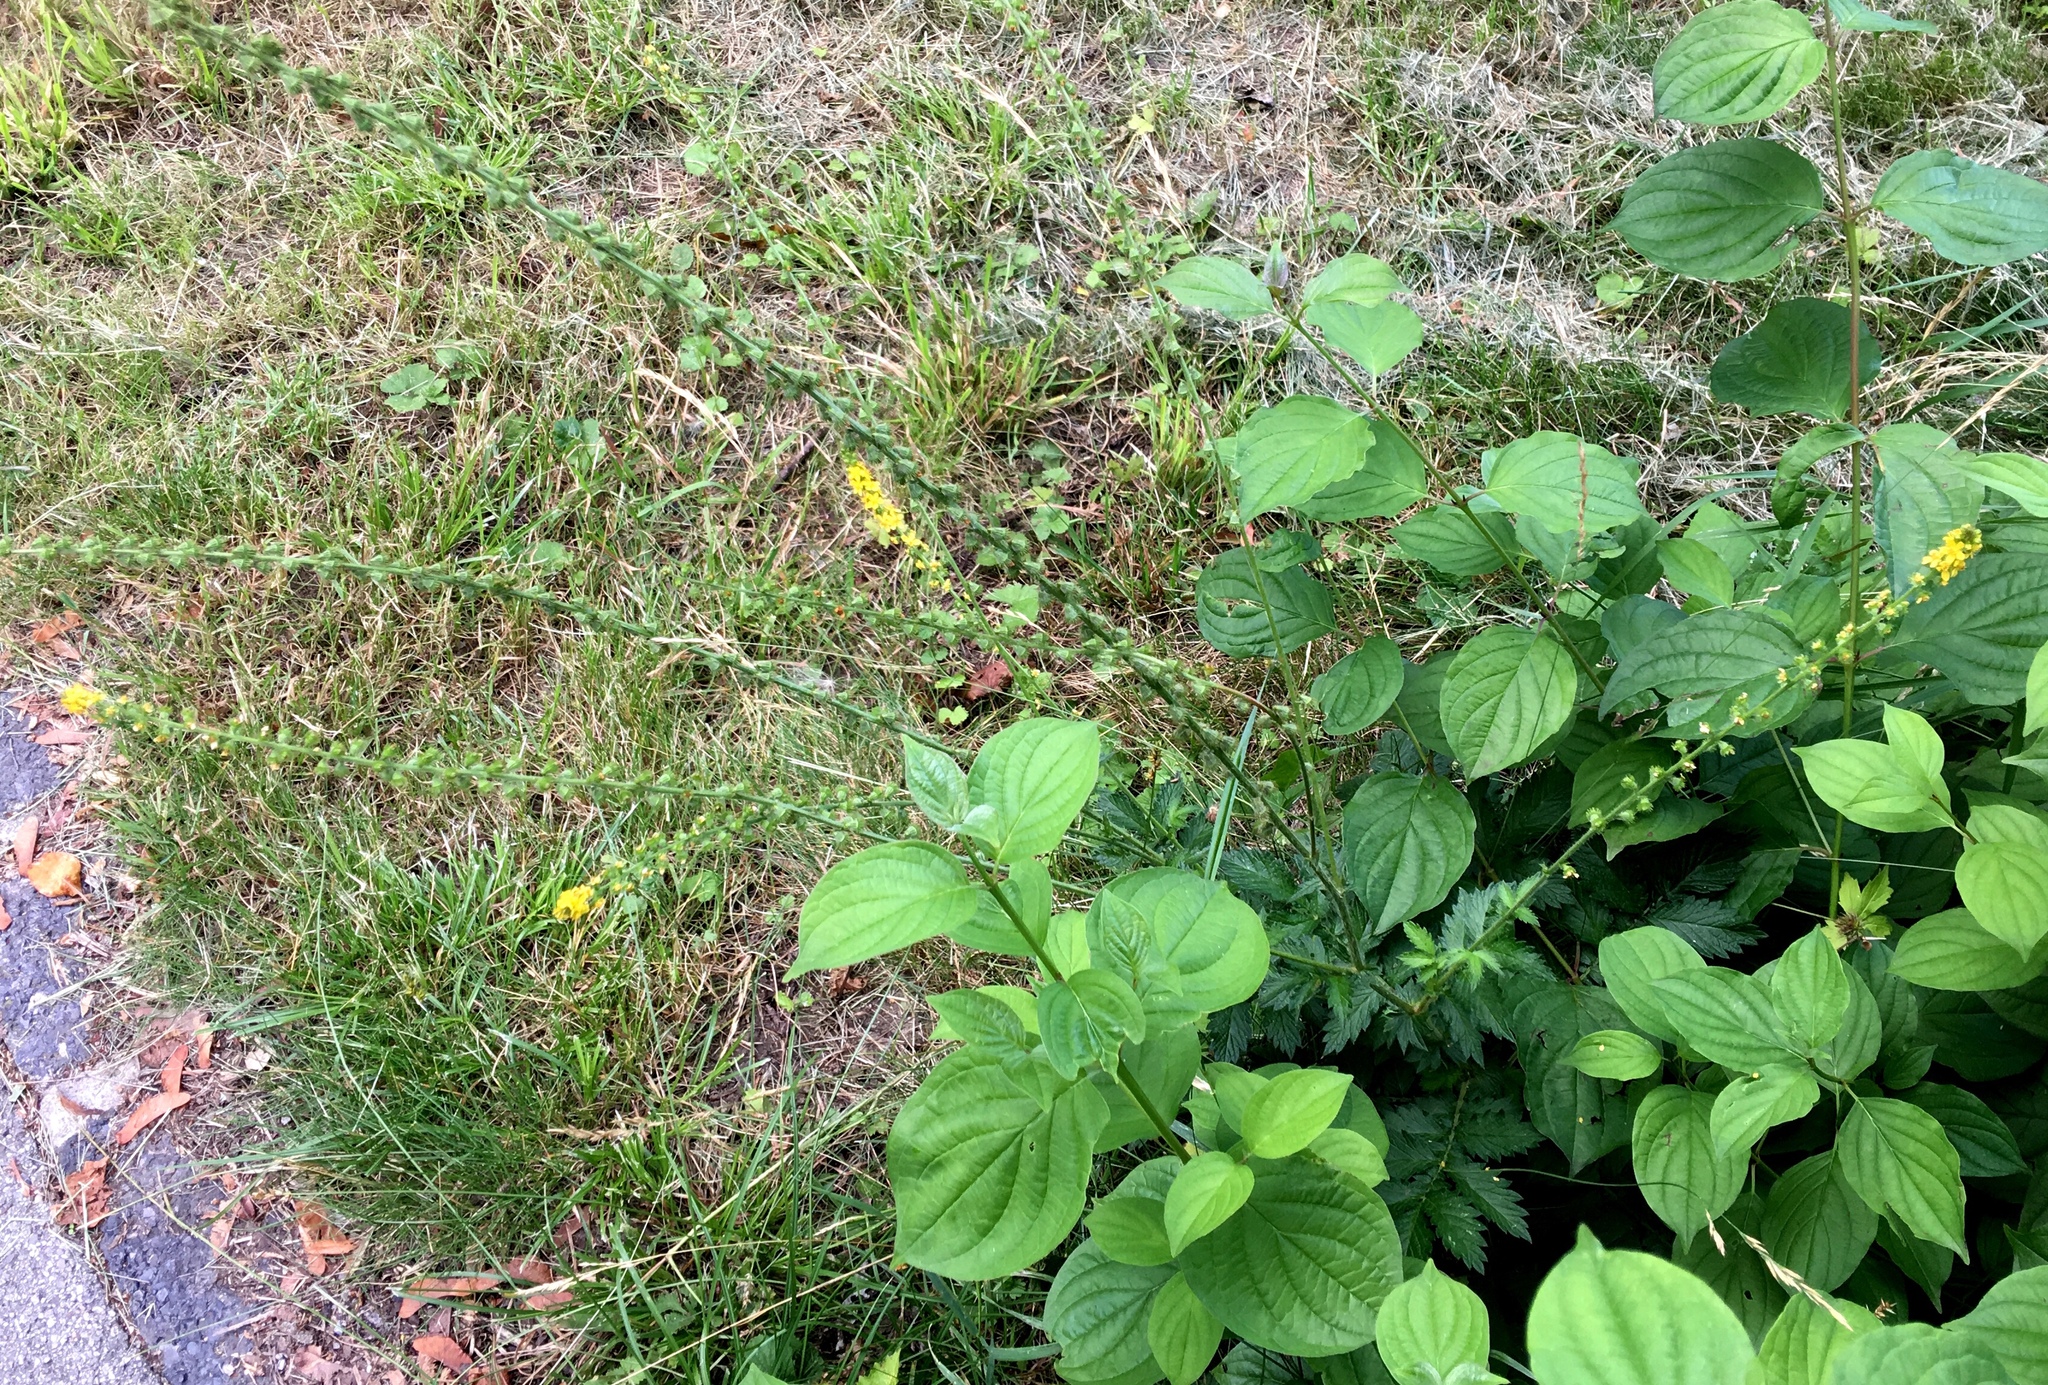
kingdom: Plantae
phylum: Tracheophyta
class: Magnoliopsida
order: Rosales
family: Rosaceae
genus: Agrimonia
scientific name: Agrimonia eupatoria
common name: Agrimony
